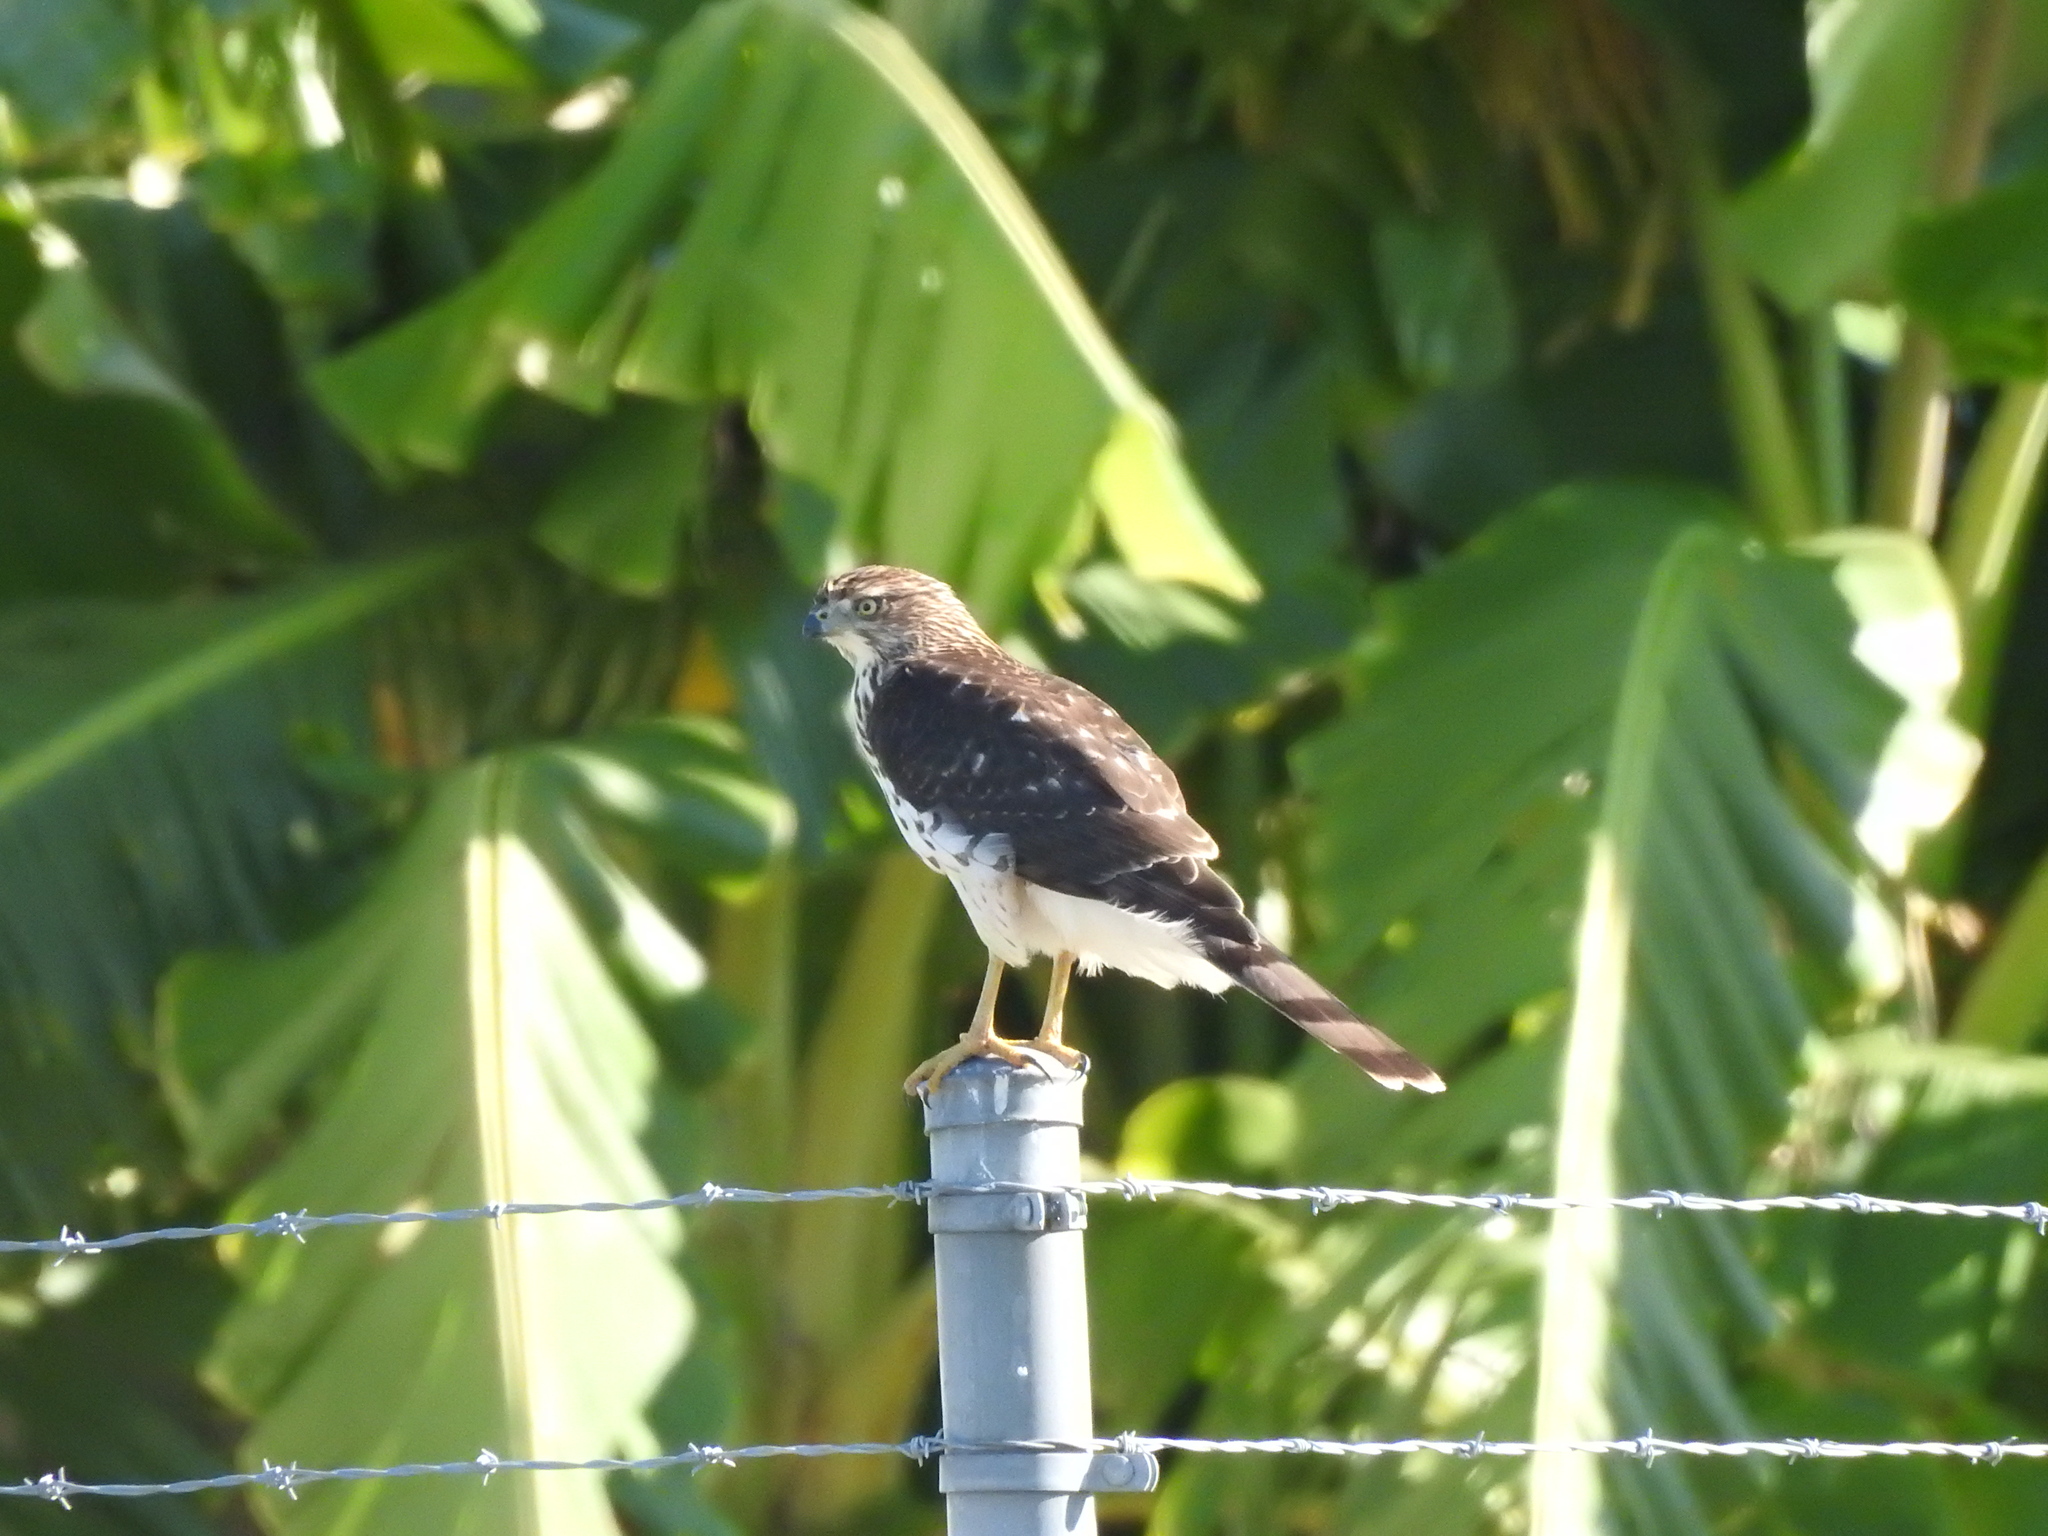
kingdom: Animalia
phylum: Chordata
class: Aves
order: Accipitriformes
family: Accipitridae
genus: Accipiter
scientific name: Accipiter cooperii
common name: Cooper's hawk
